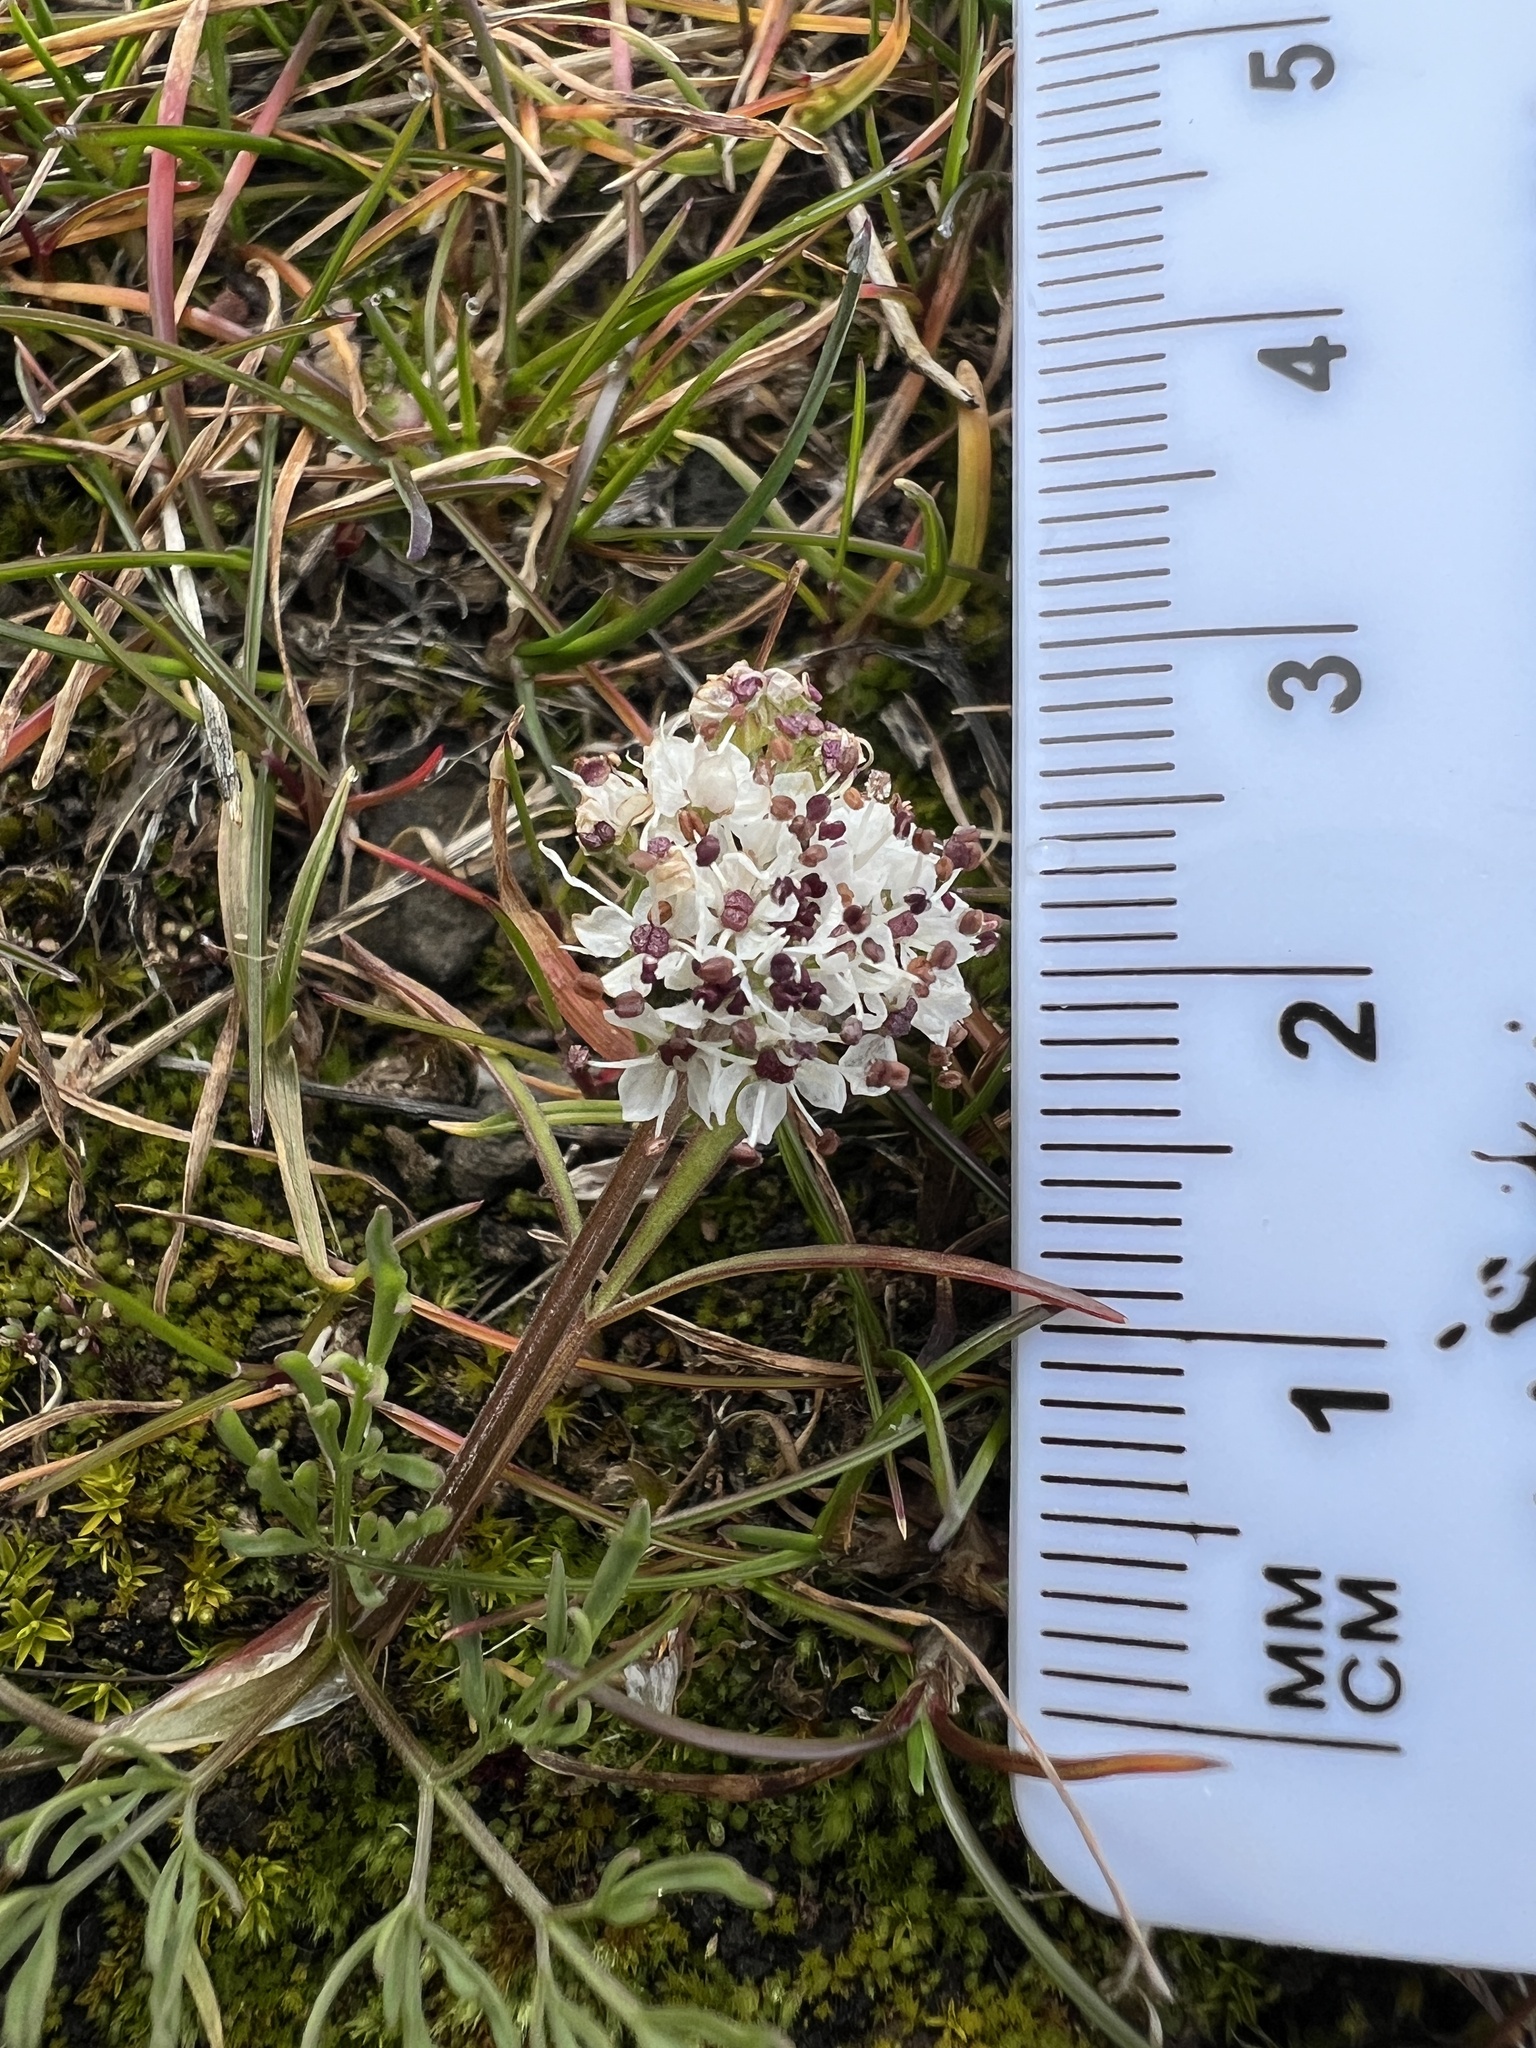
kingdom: Plantae
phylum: Tracheophyta
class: Magnoliopsida
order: Apiales
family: Apiaceae
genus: Lomatium
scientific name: Lomatium gormanii
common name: Gorman's biscuitroot
